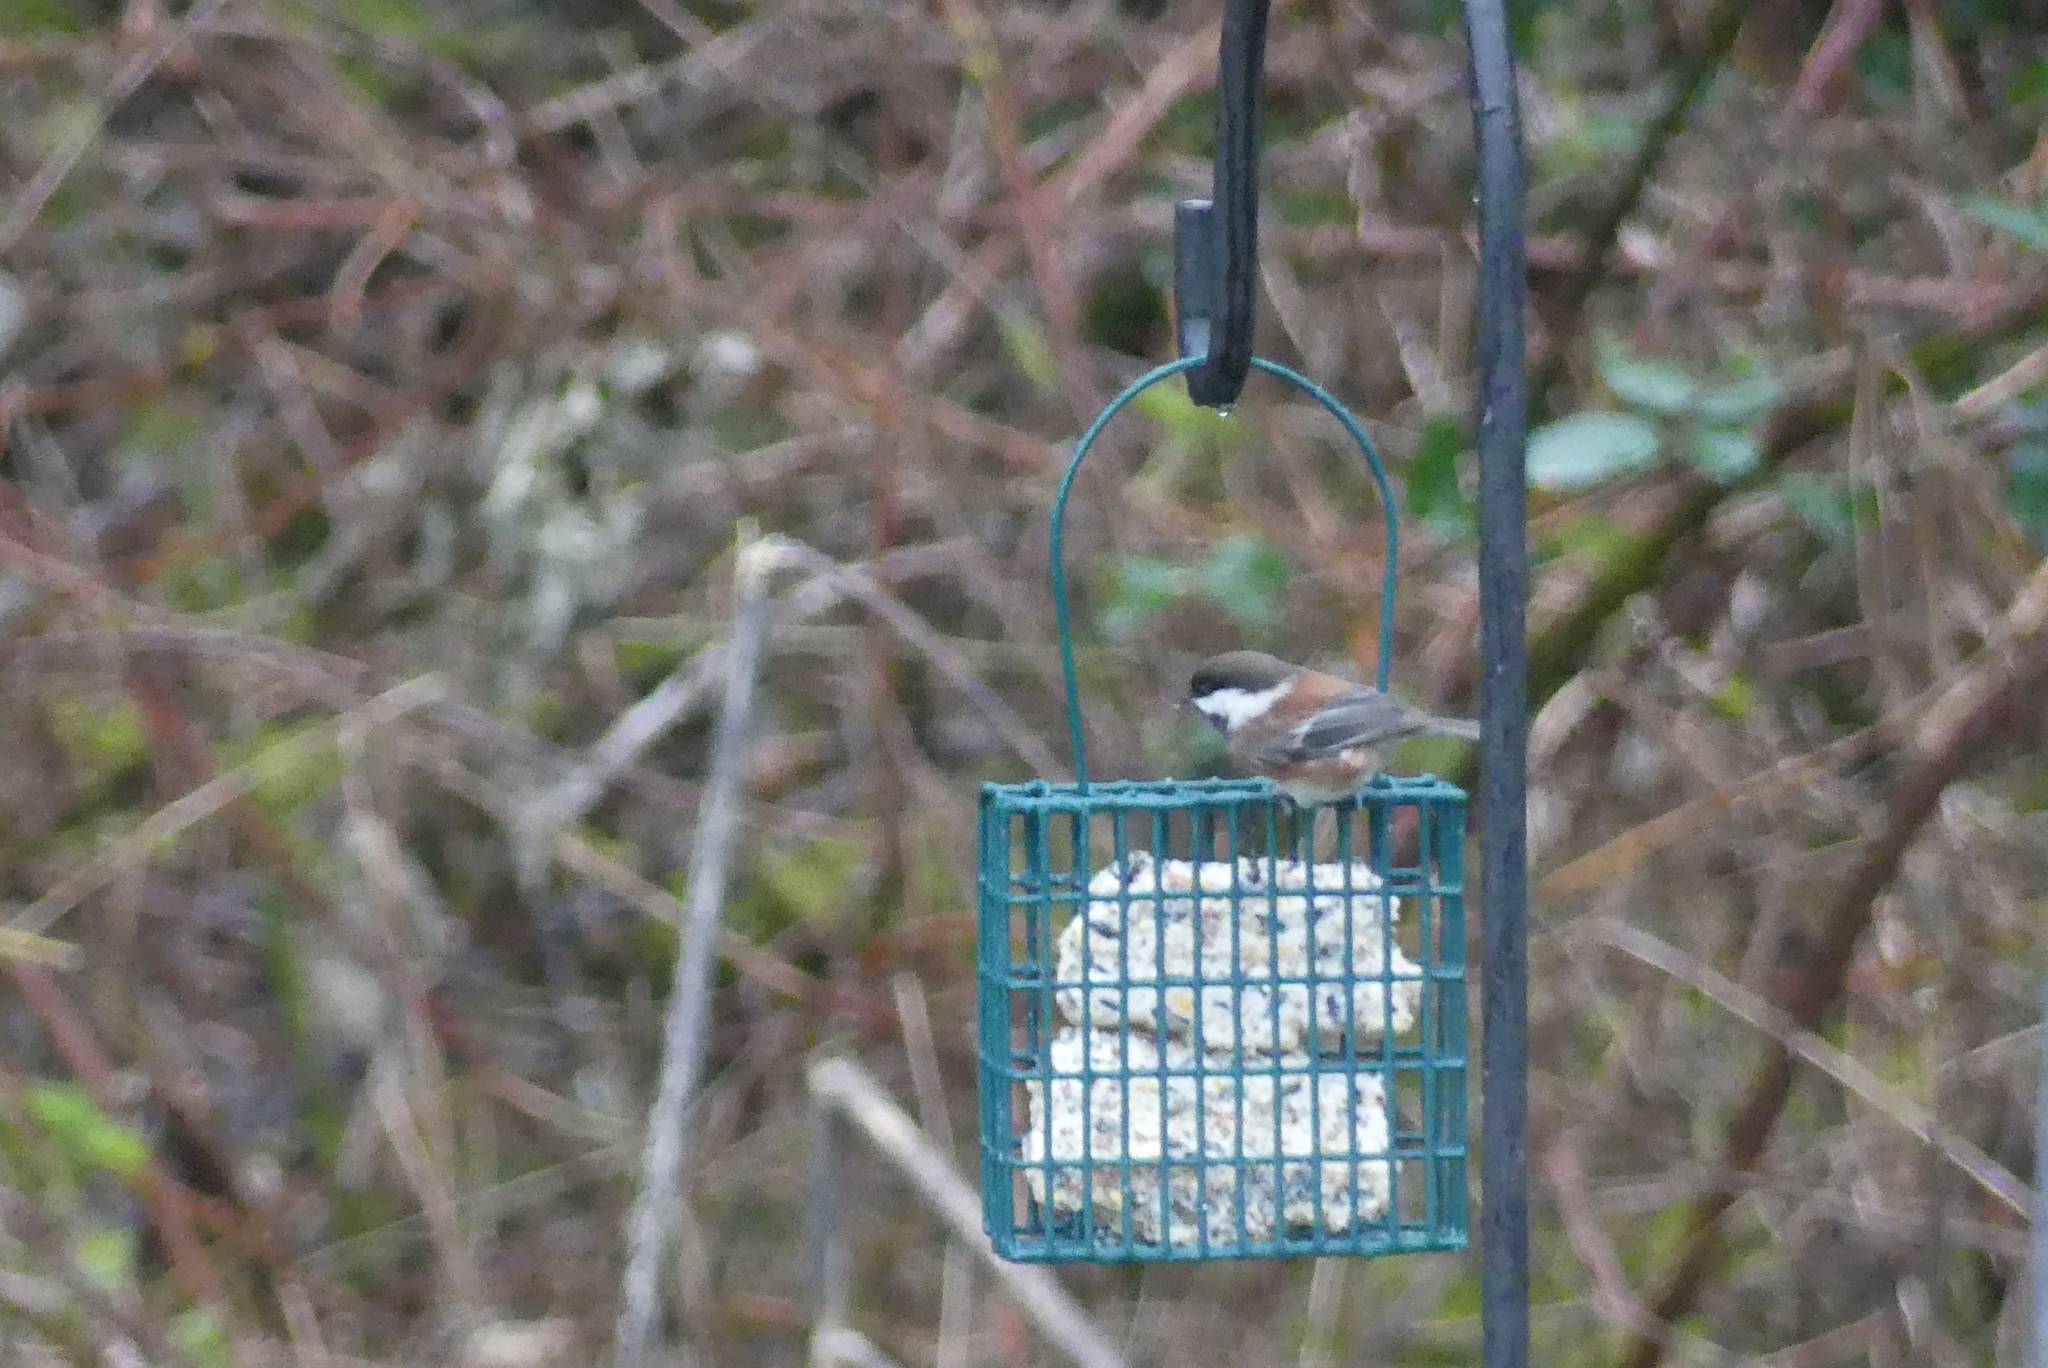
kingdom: Animalia
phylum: Chordata
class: Aves
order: Passeriformes
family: Paridae
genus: Poecile
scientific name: Poecile rufescens
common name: Chestnut-backed chickadee
